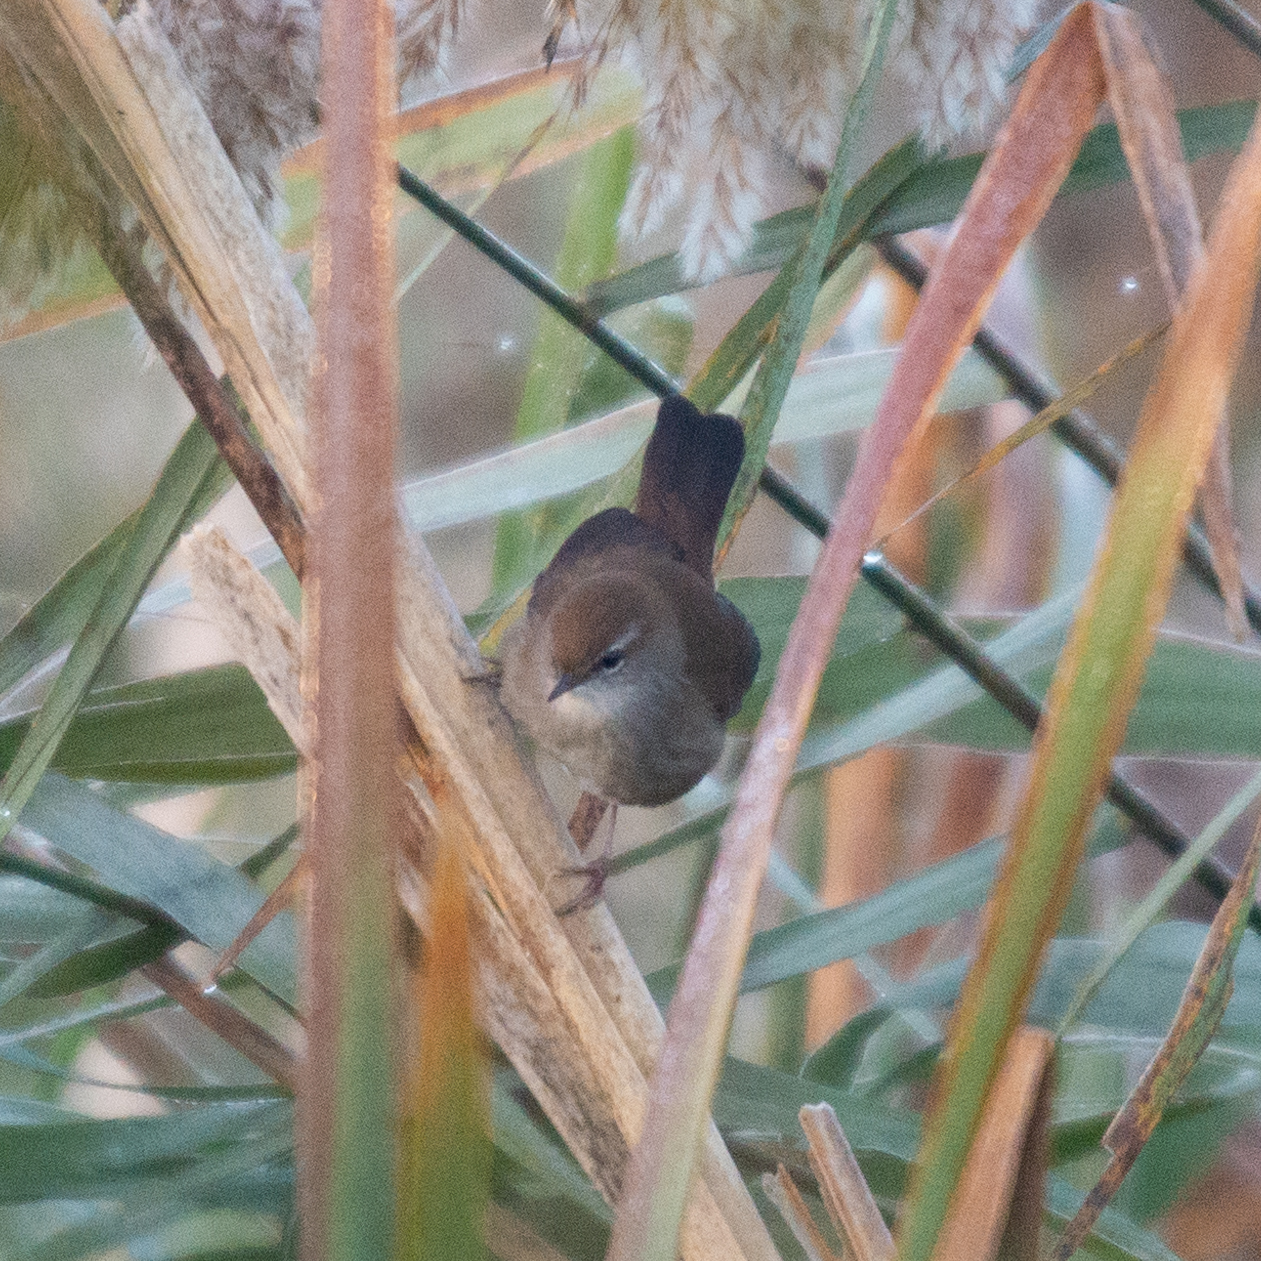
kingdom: Animalia
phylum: Chordata
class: Aves
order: Passeriformes
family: Cettiidae
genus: Cettia
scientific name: Cettia cetti
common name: Cetti's warbler
